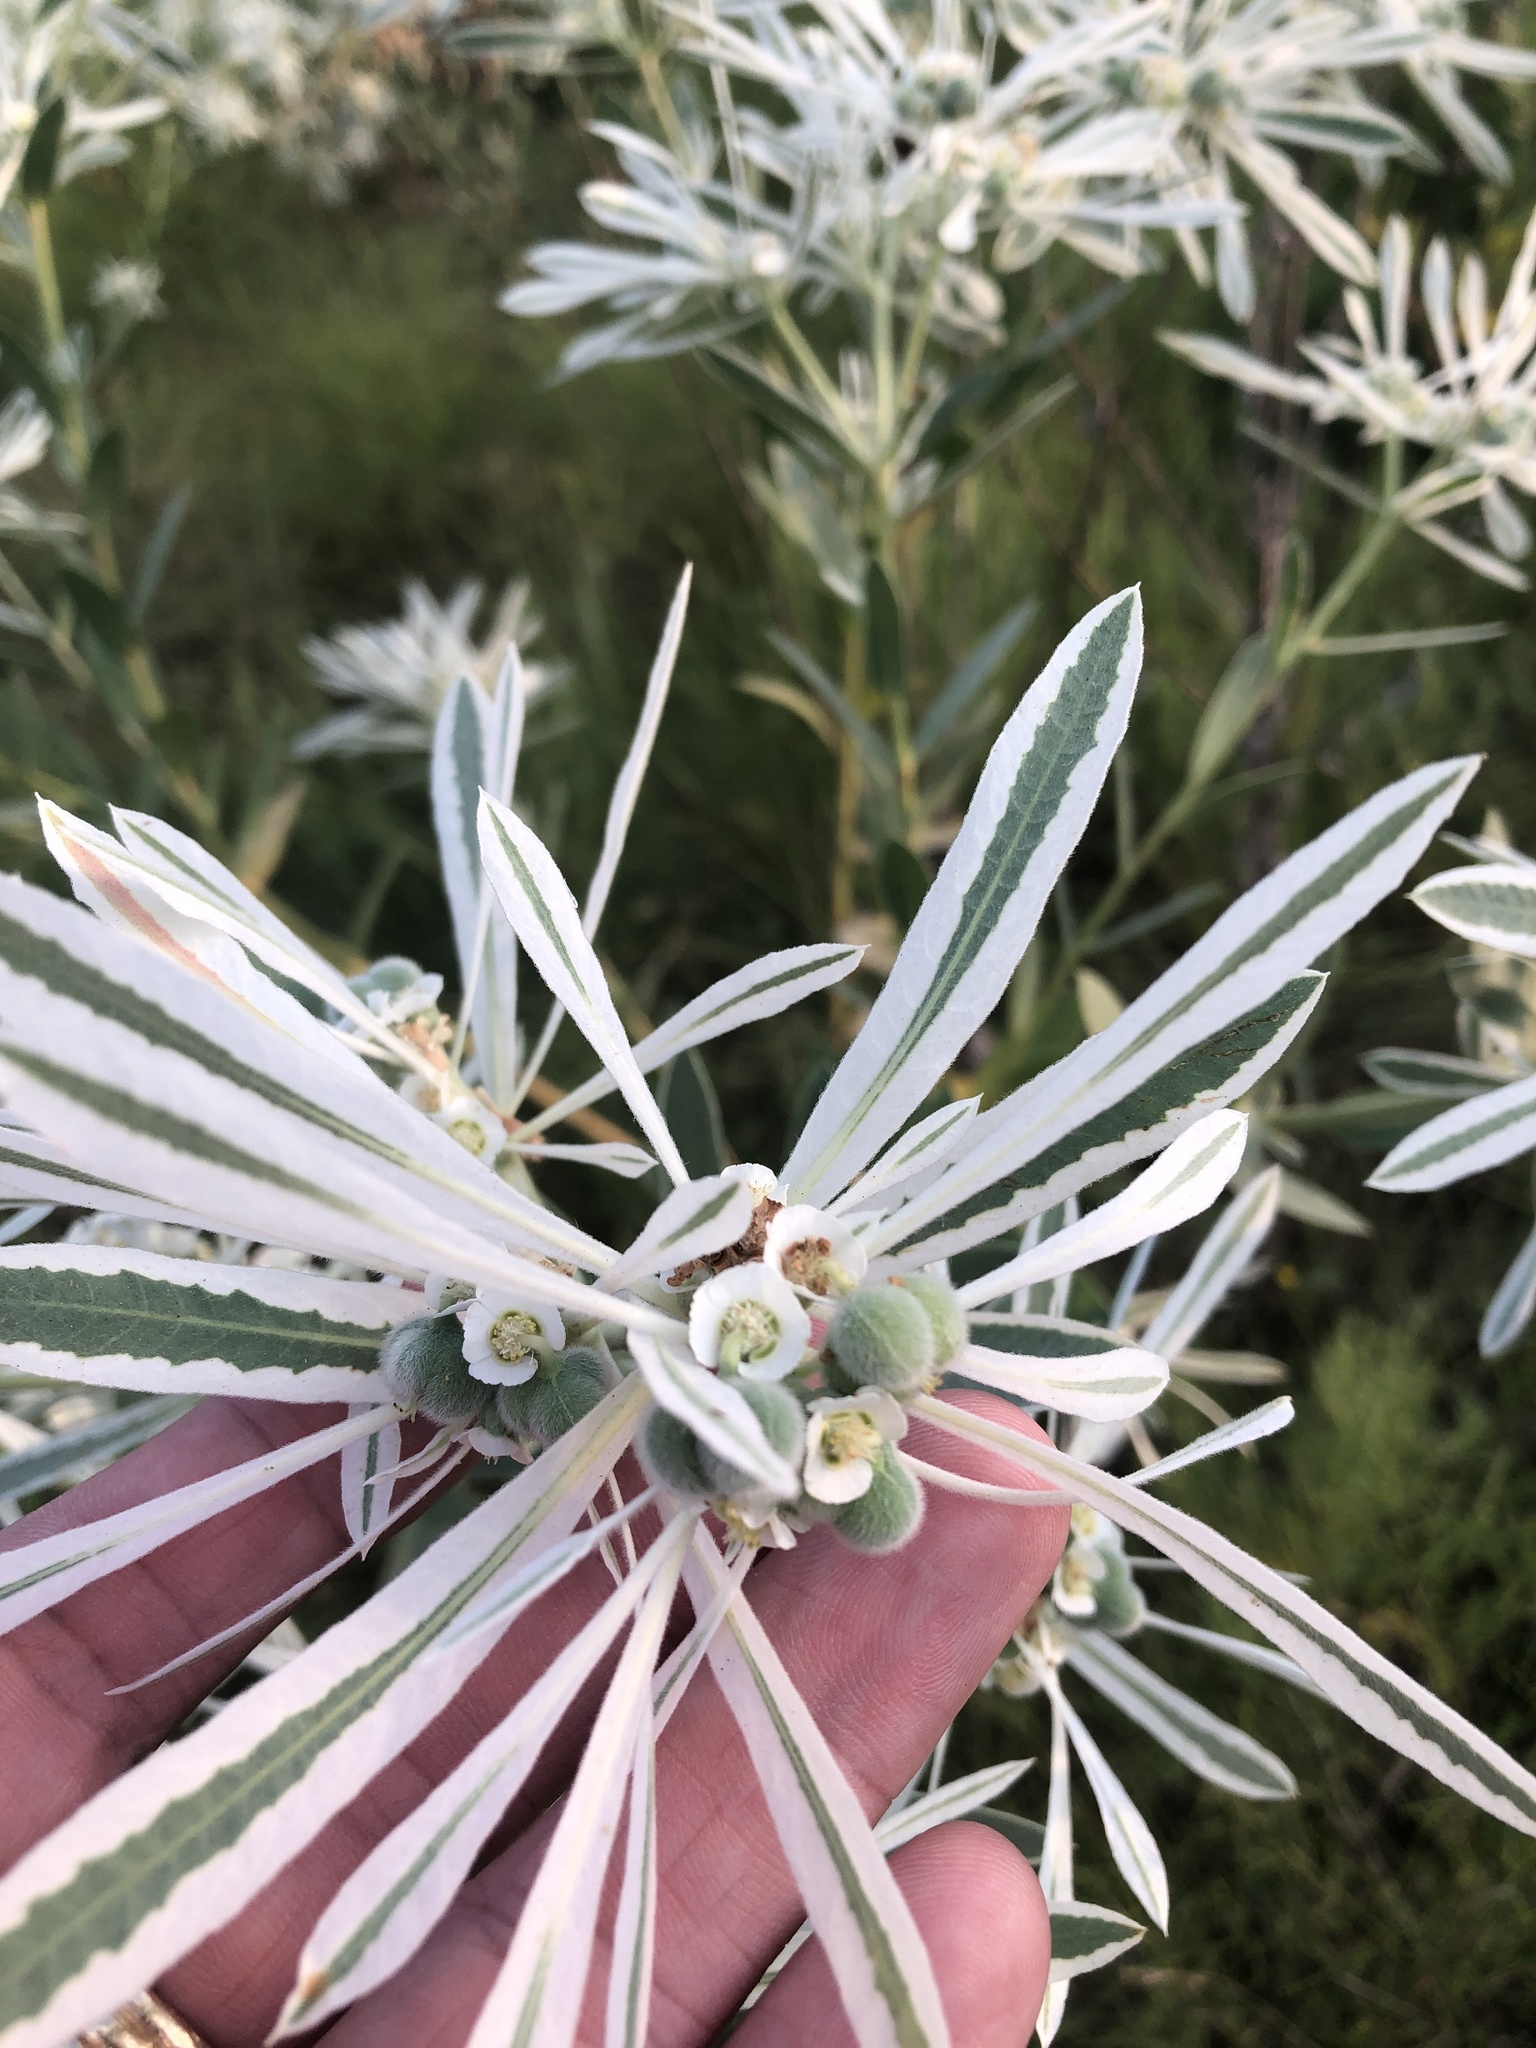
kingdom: Plantae
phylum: Tracheophyta
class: Magnoliopsida
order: Malpighiales
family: Euphorbiaceae
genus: Euphorbia
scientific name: Euphorbia bicolor
